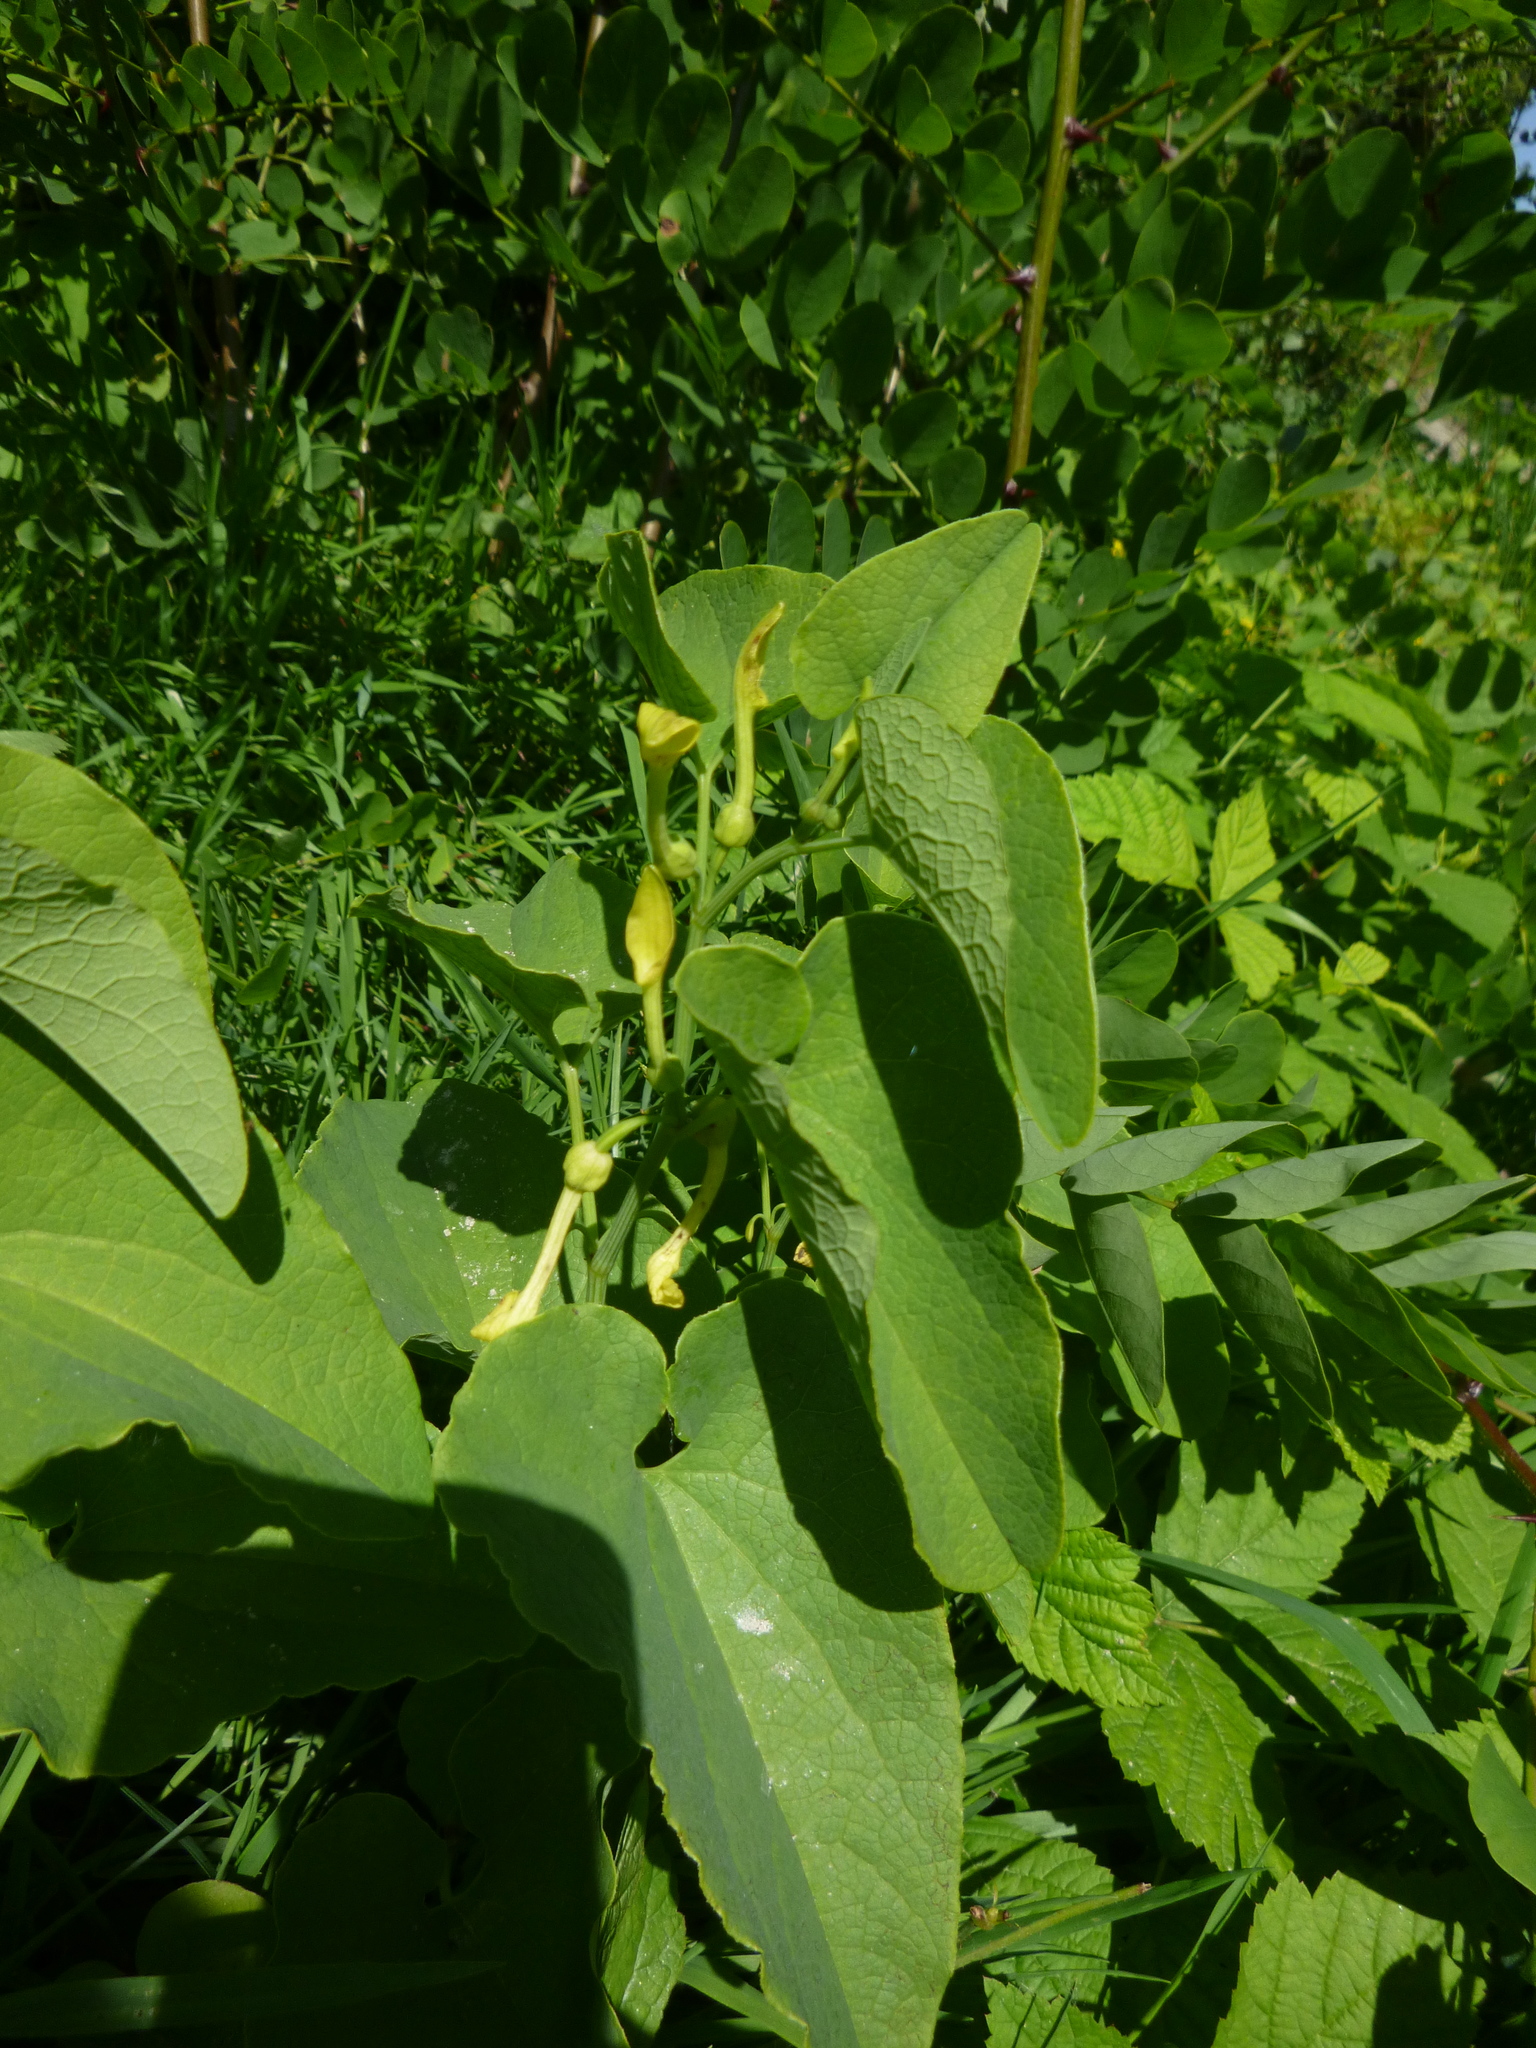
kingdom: Plantae
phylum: Tracheophyta
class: Magnoliopsida
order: Piperales
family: Aristolochiaceae
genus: Aristolochia
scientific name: Aristolochia clematitis
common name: Birthwort
